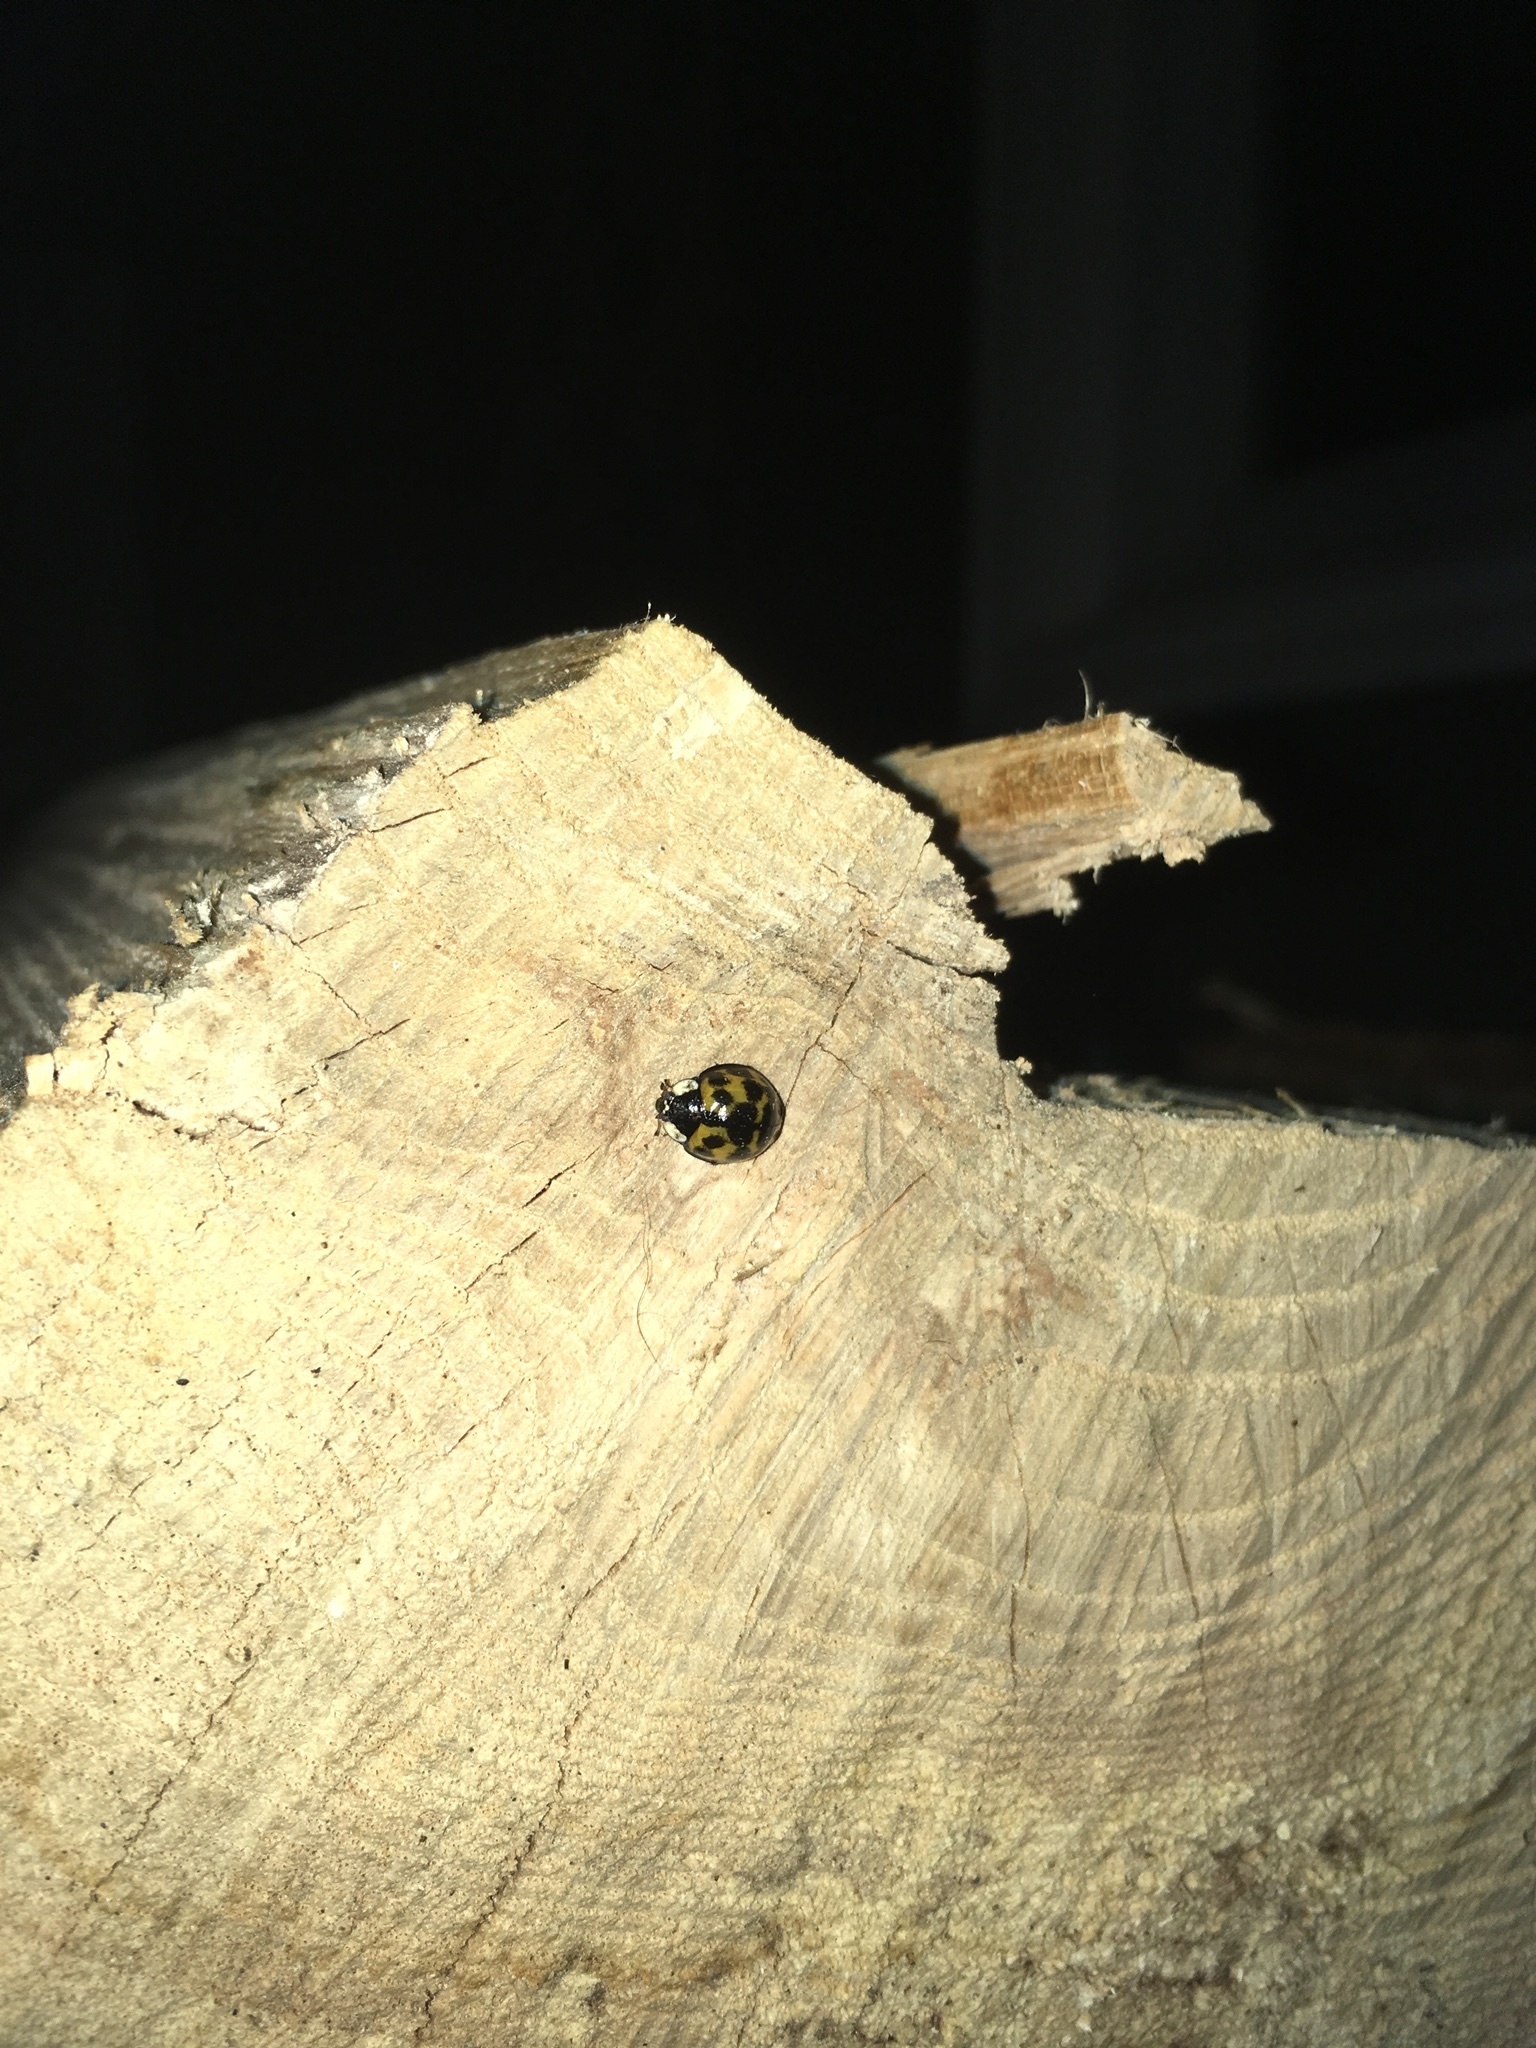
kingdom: Animalia
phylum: Arthropoda
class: Insecta
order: Coleoptera
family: Coccinellidae
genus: Harmonia
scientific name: Harmonia axyridis
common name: Harlequin ladybird
